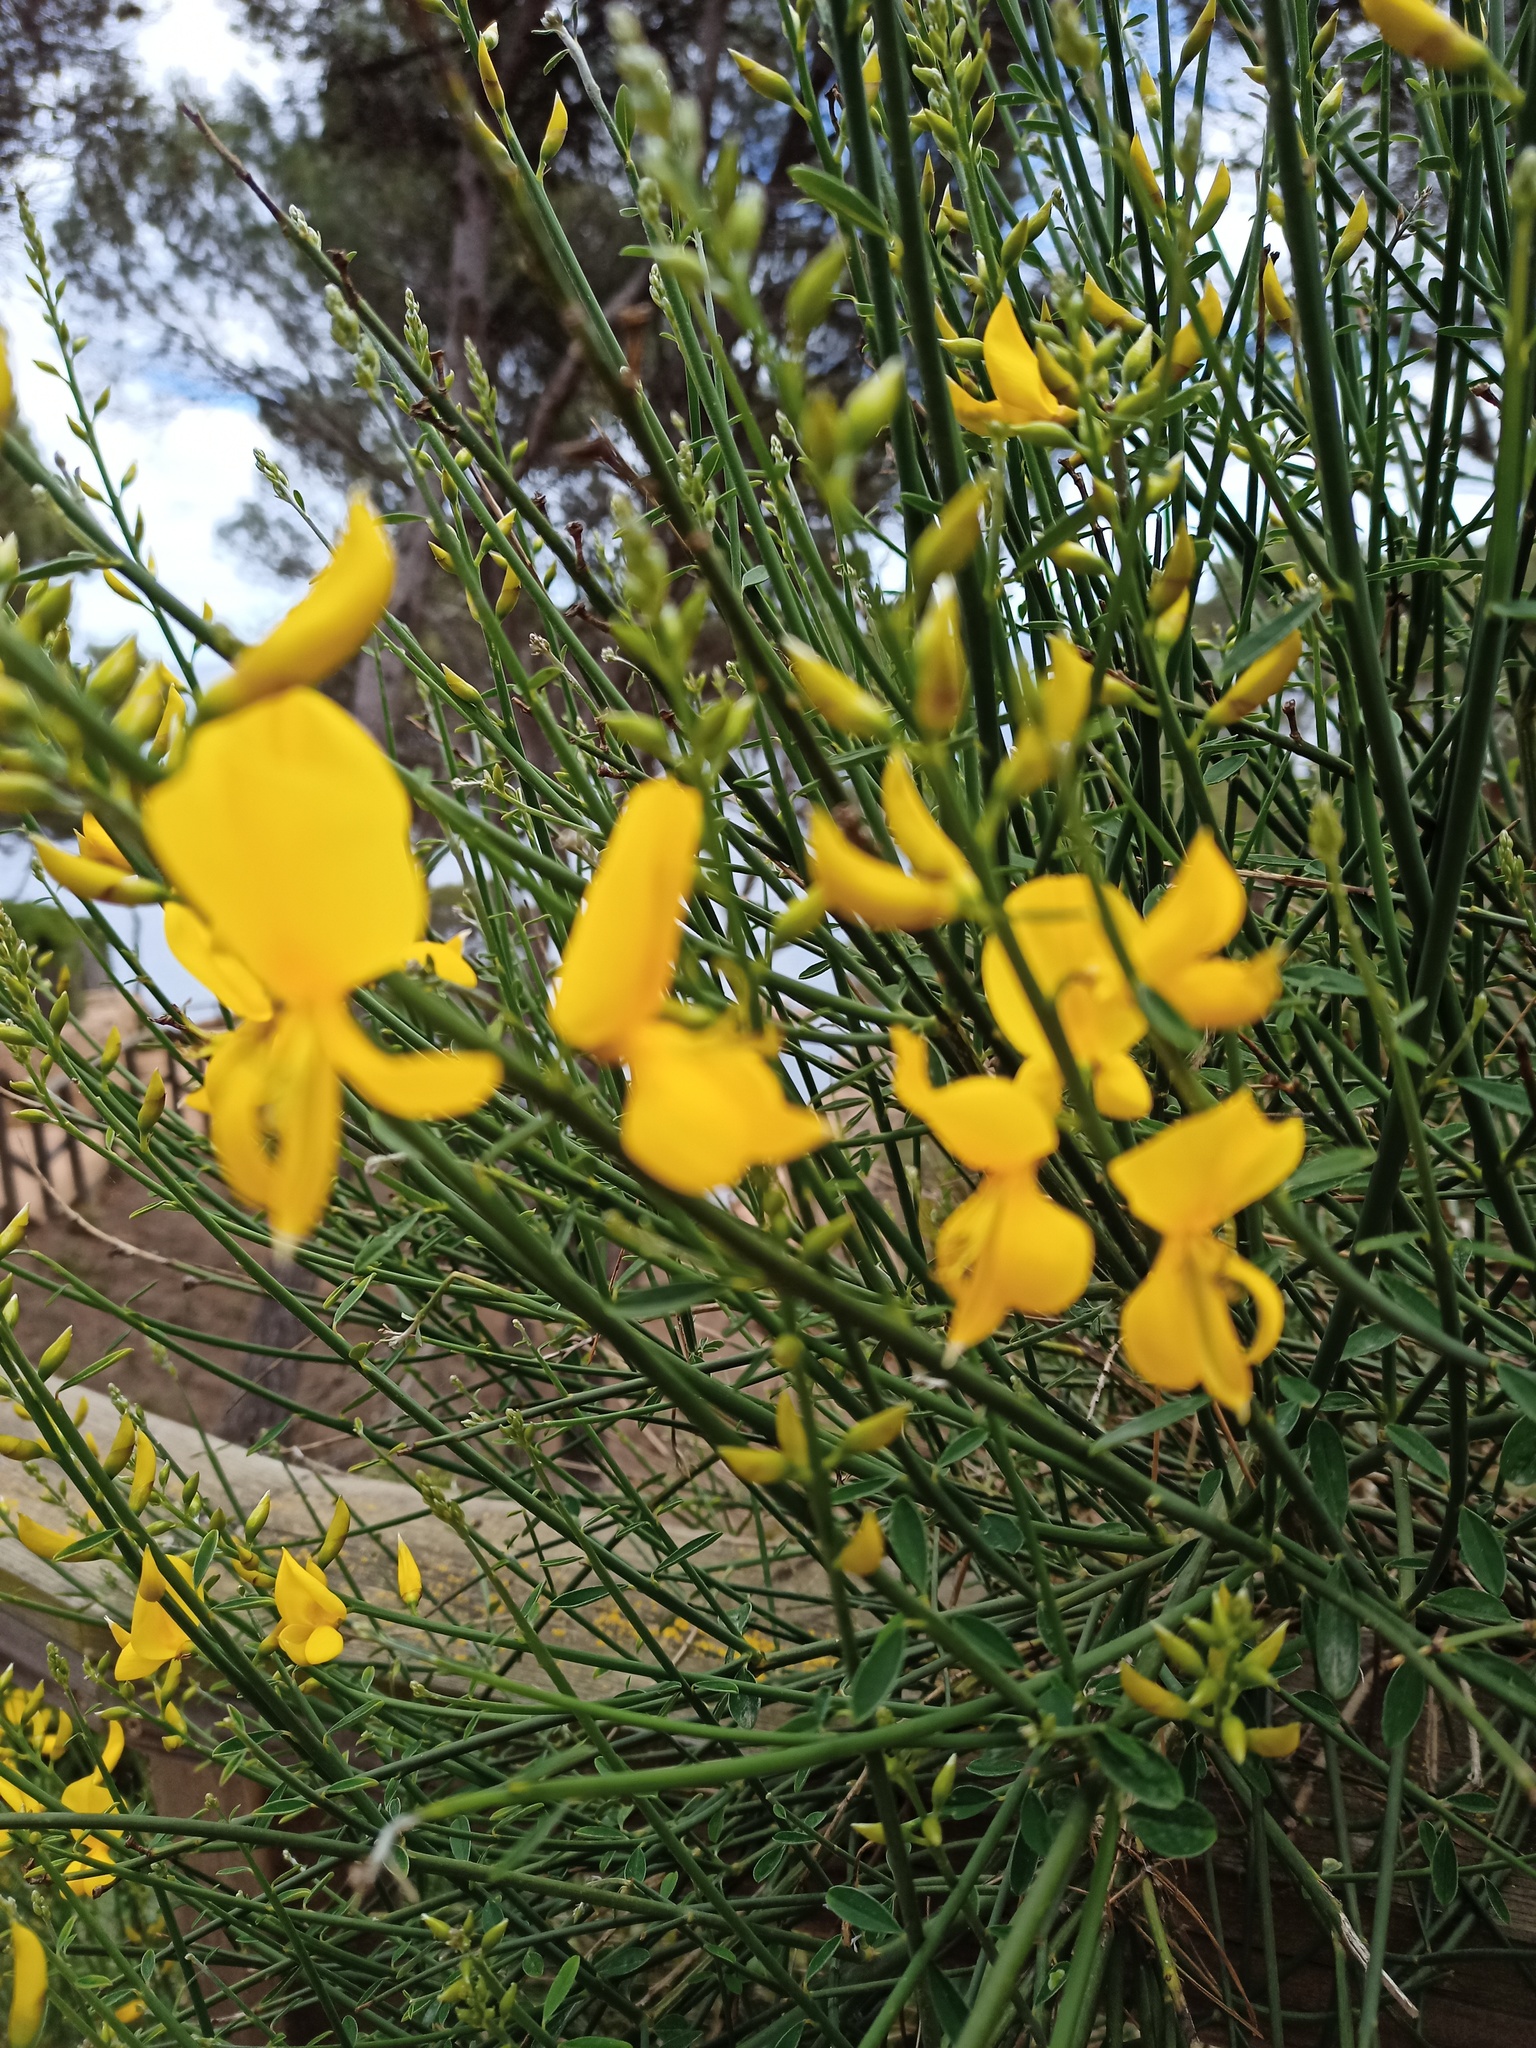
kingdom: Plantae
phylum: Tracheophyta
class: Magnoliopsida
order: Fabales
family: Fabaceae
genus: Spartium
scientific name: Spartium junceum
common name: Spanish broom
